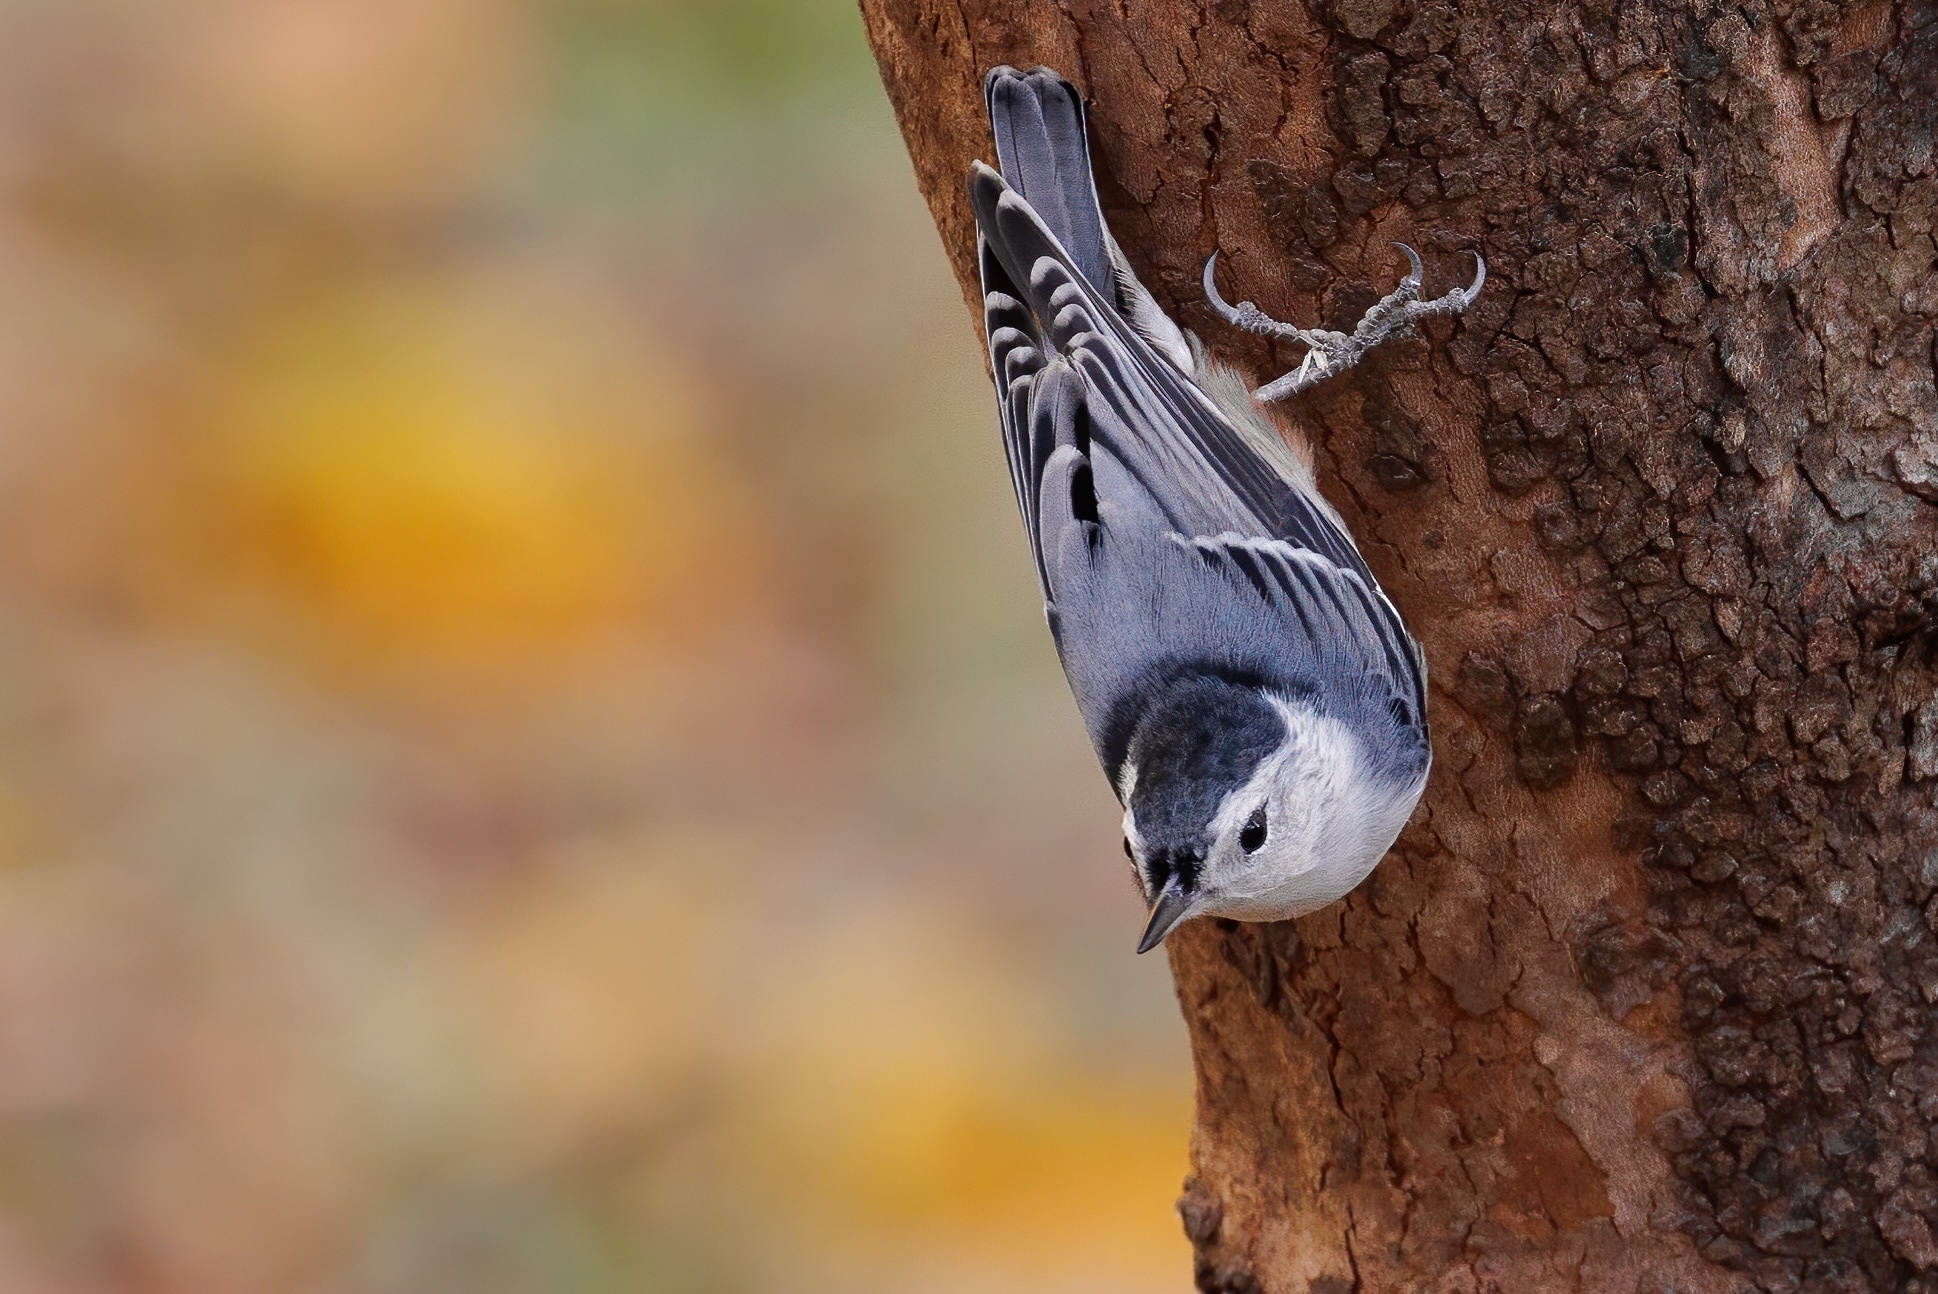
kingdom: Animalia
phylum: Chordata
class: Aves
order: Passeriformes
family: Sittidae
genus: Sitta
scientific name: Sitta carolinensis
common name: White-breasted nuthatch
